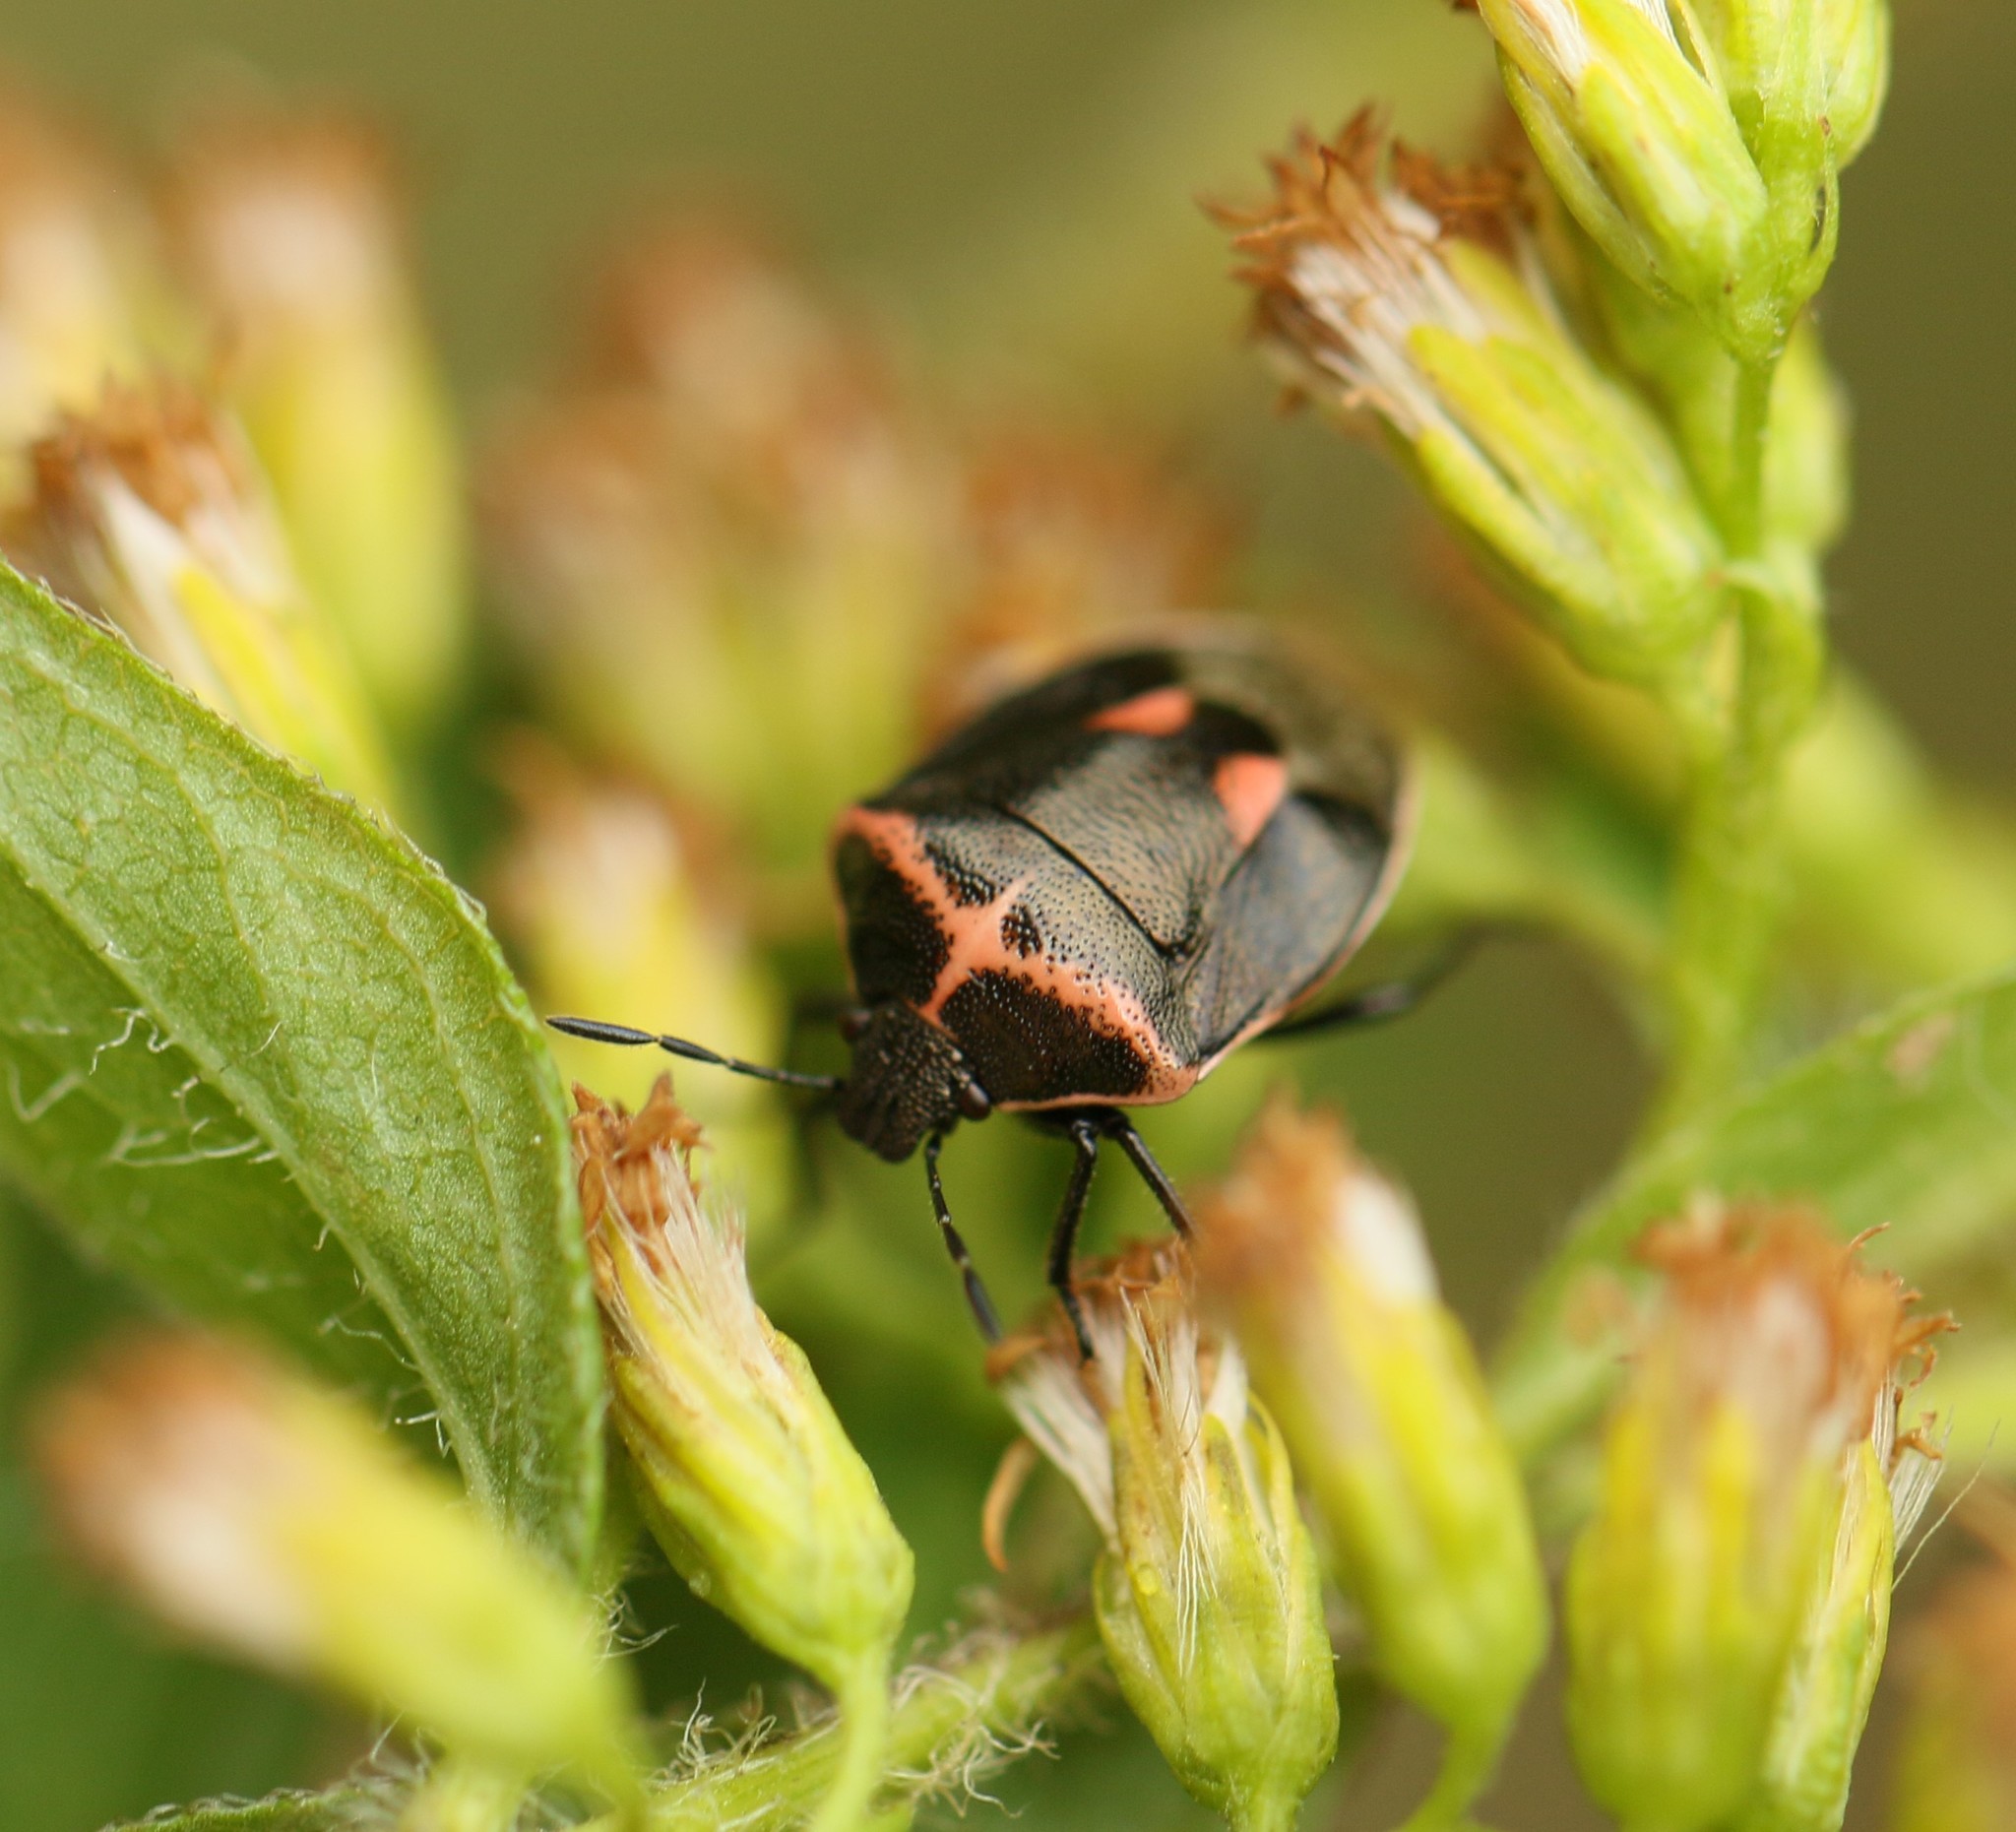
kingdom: Animalia
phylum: Arthropoda
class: Insecta
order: Hemiptera
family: Pentatomidae
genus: Cosmopepla
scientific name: Cosmopepla lintneriana
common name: Twice-stabbed stink bug
